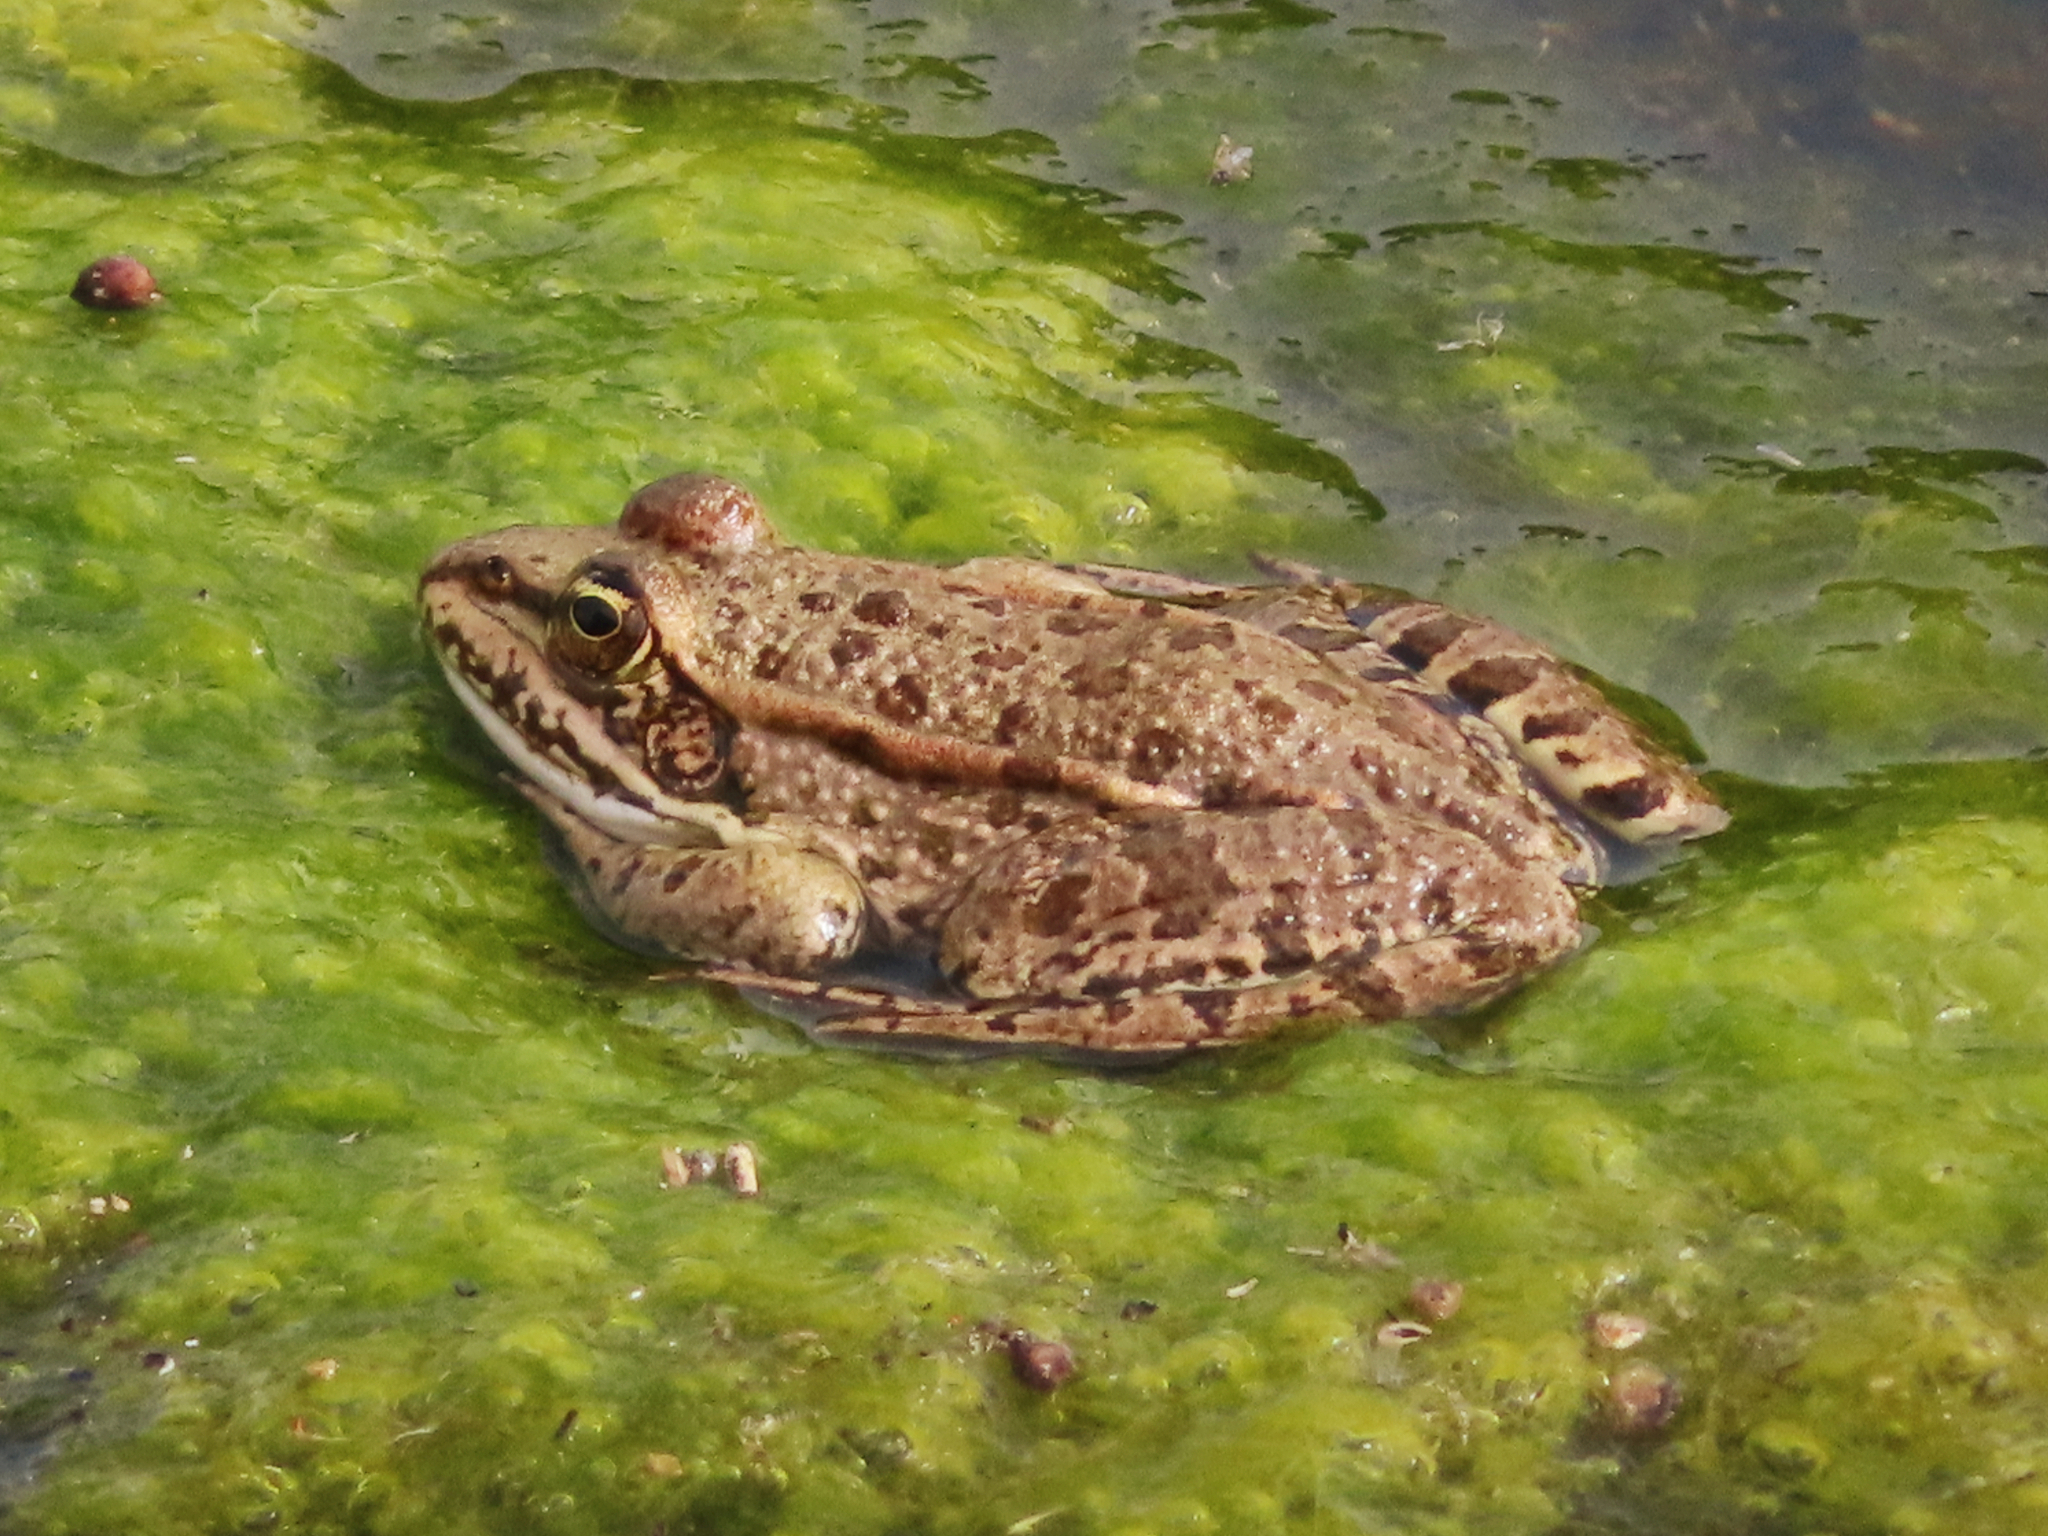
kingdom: Animalia
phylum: Chordata
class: Amphibia
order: Anura
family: Ranidae
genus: Pelophylax
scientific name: Pelophylax ridibundus
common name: Marsh frog
